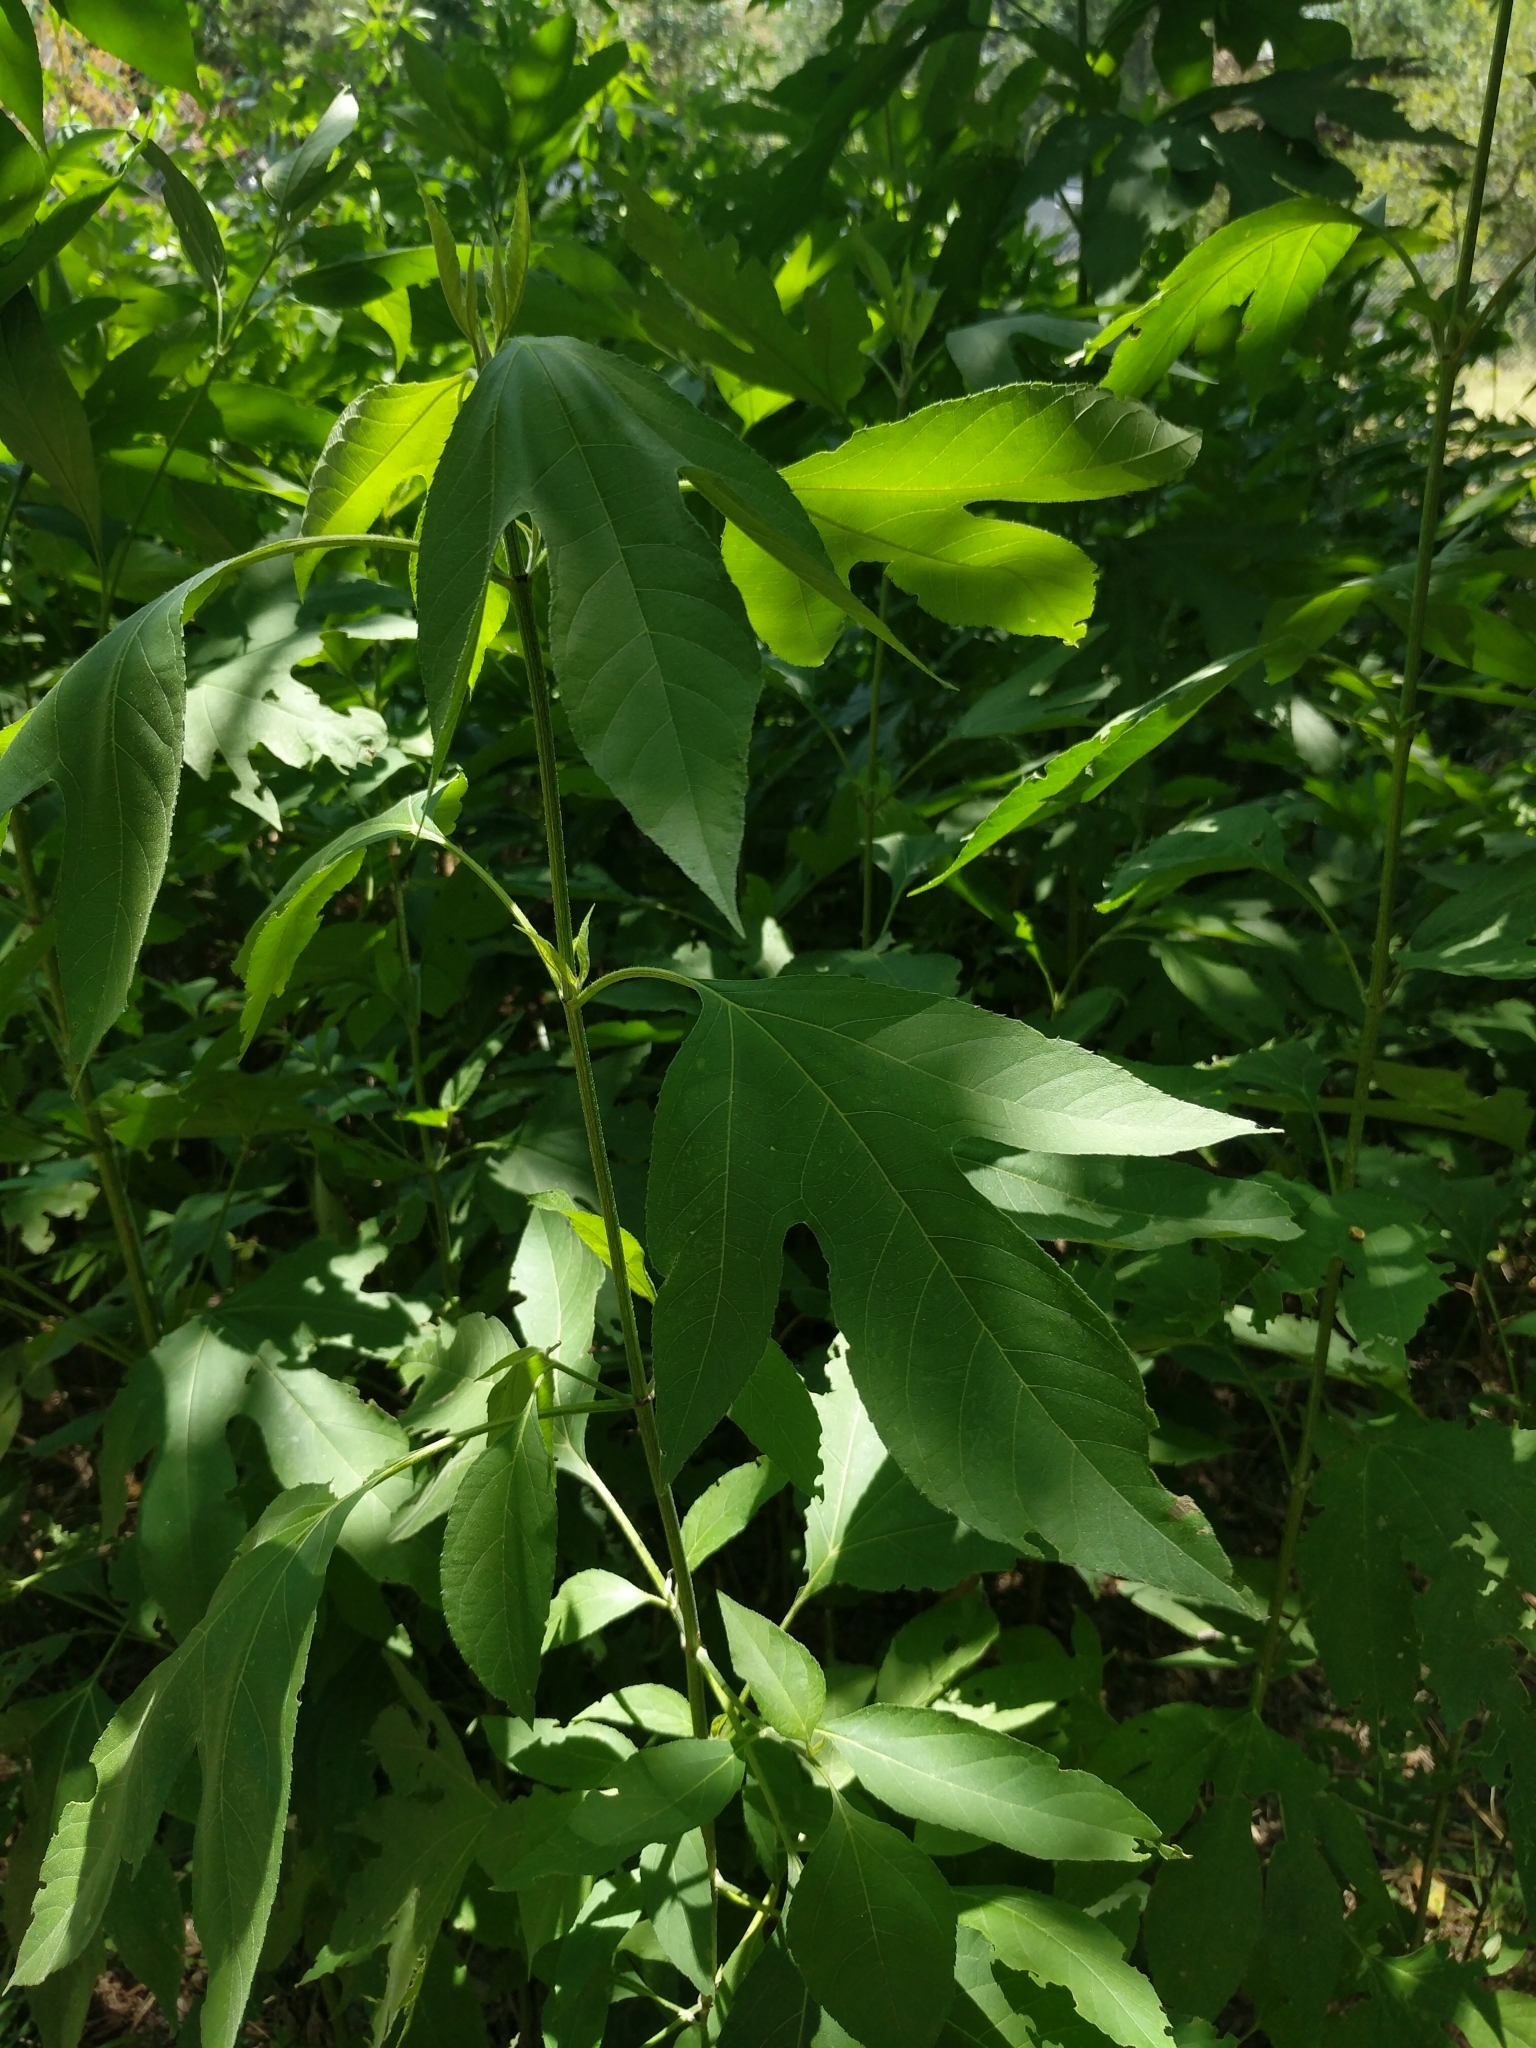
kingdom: Plantae
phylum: Tracheophyta
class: Magnoliopsida
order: Asterales
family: Asteraceae
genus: Ambrosia
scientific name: Ambrosia trifida
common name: Giant ragweed
